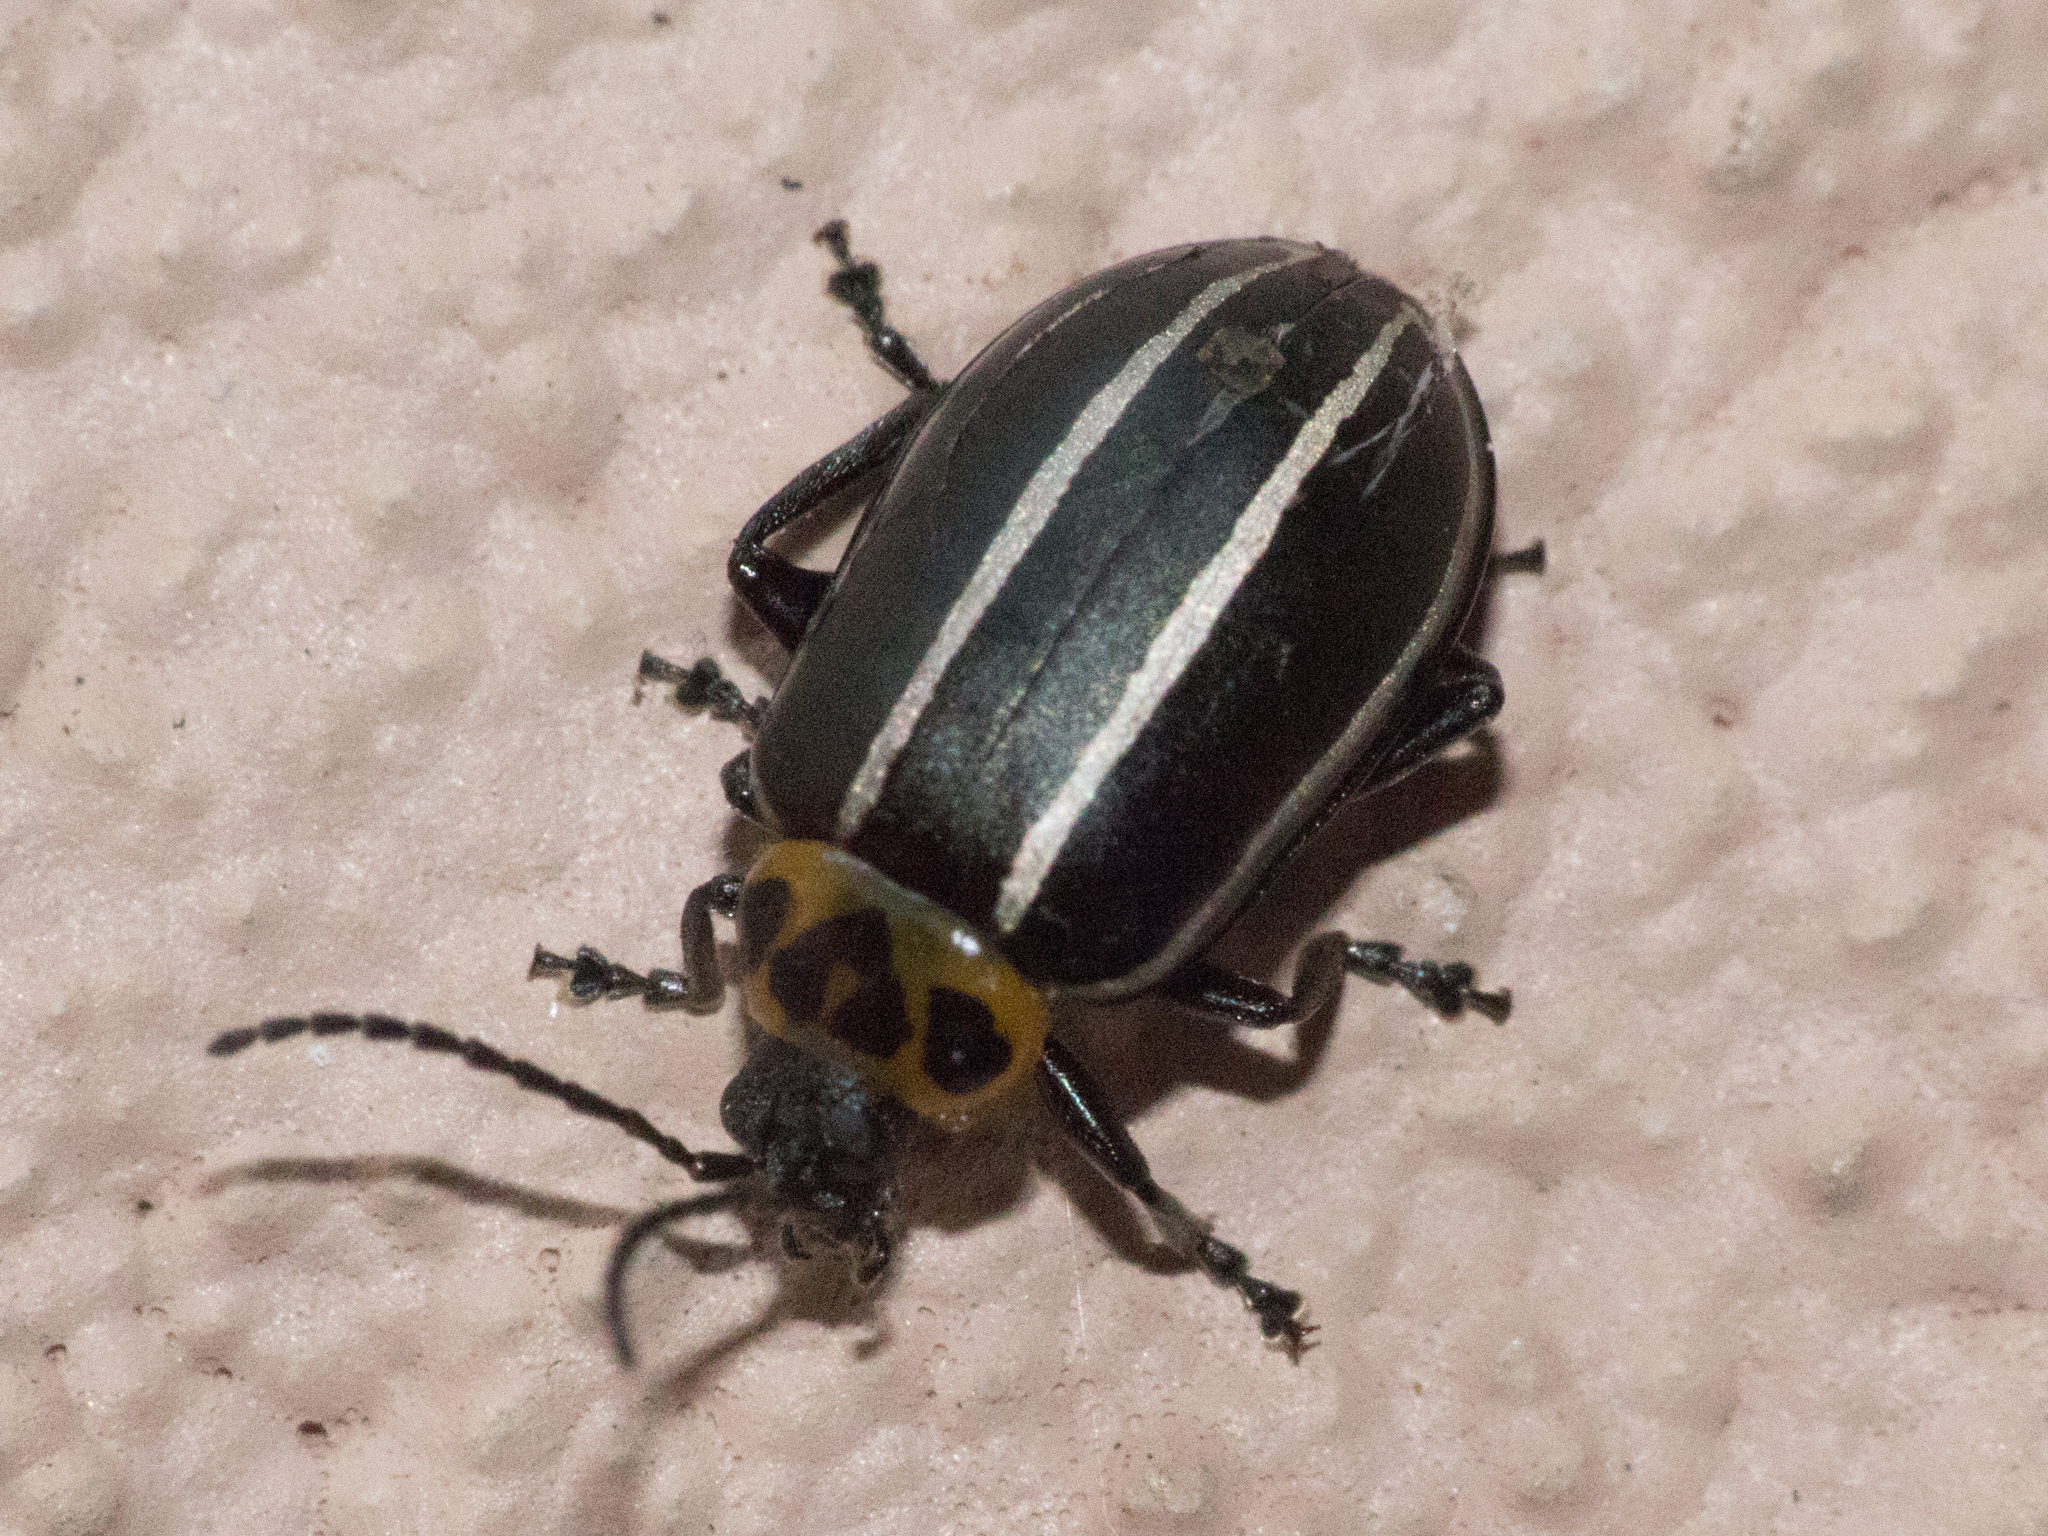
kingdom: Animalia
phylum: Arthropoda
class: Insecta
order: Coleoptera
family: Chrysomelidae
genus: Disonycha
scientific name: Disonycha
